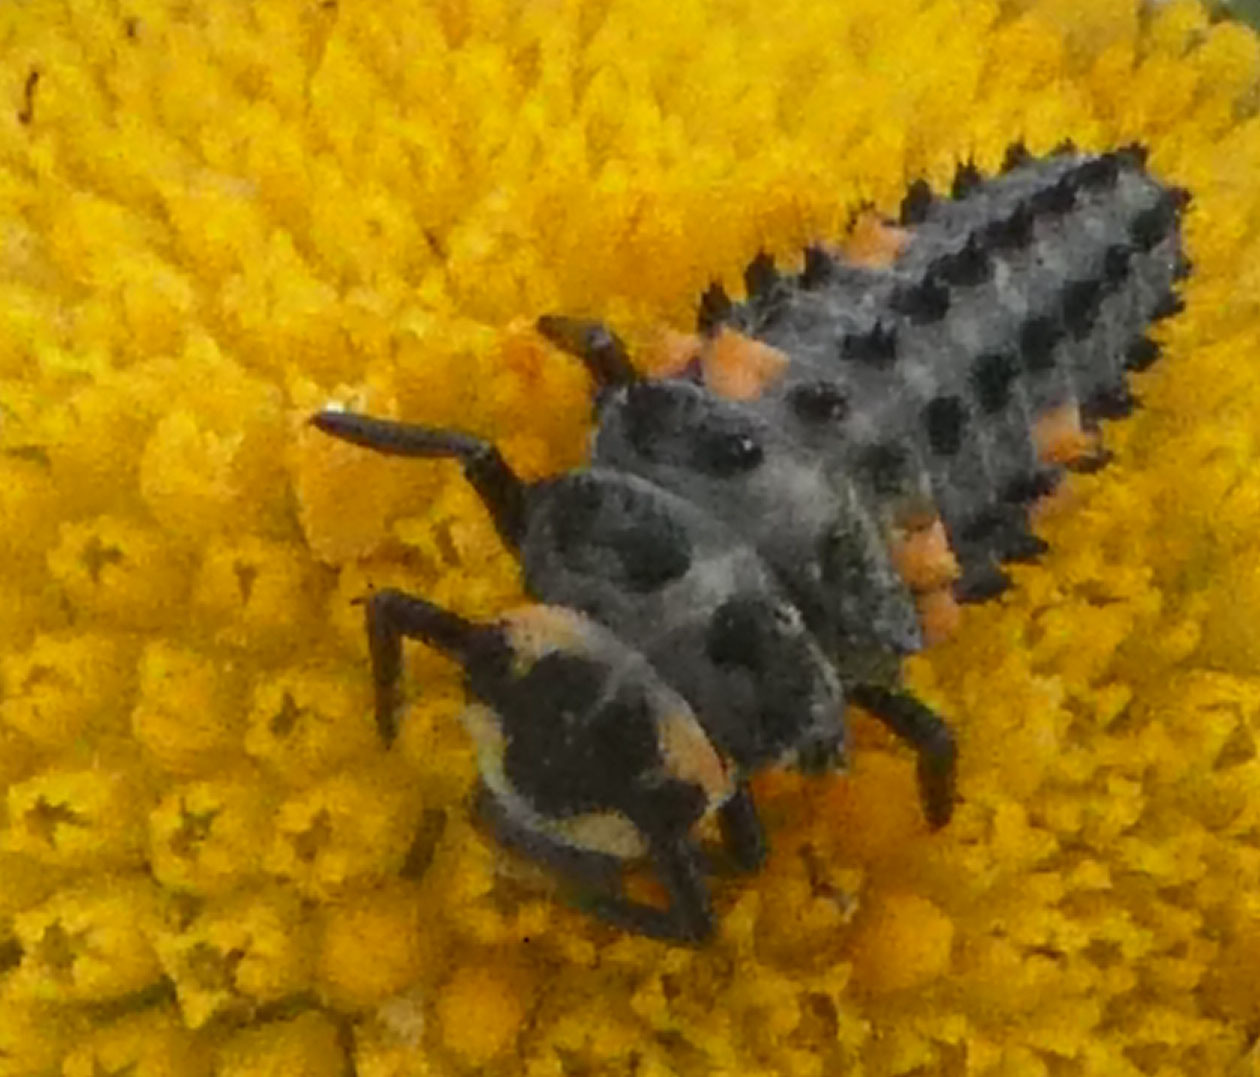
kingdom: Animalia
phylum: Arthropoda
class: Insecta
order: Coleoptera
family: Coccinellidae
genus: Coccinella
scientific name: Coccinella septempunctata
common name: Sevenspotted lady beetle
